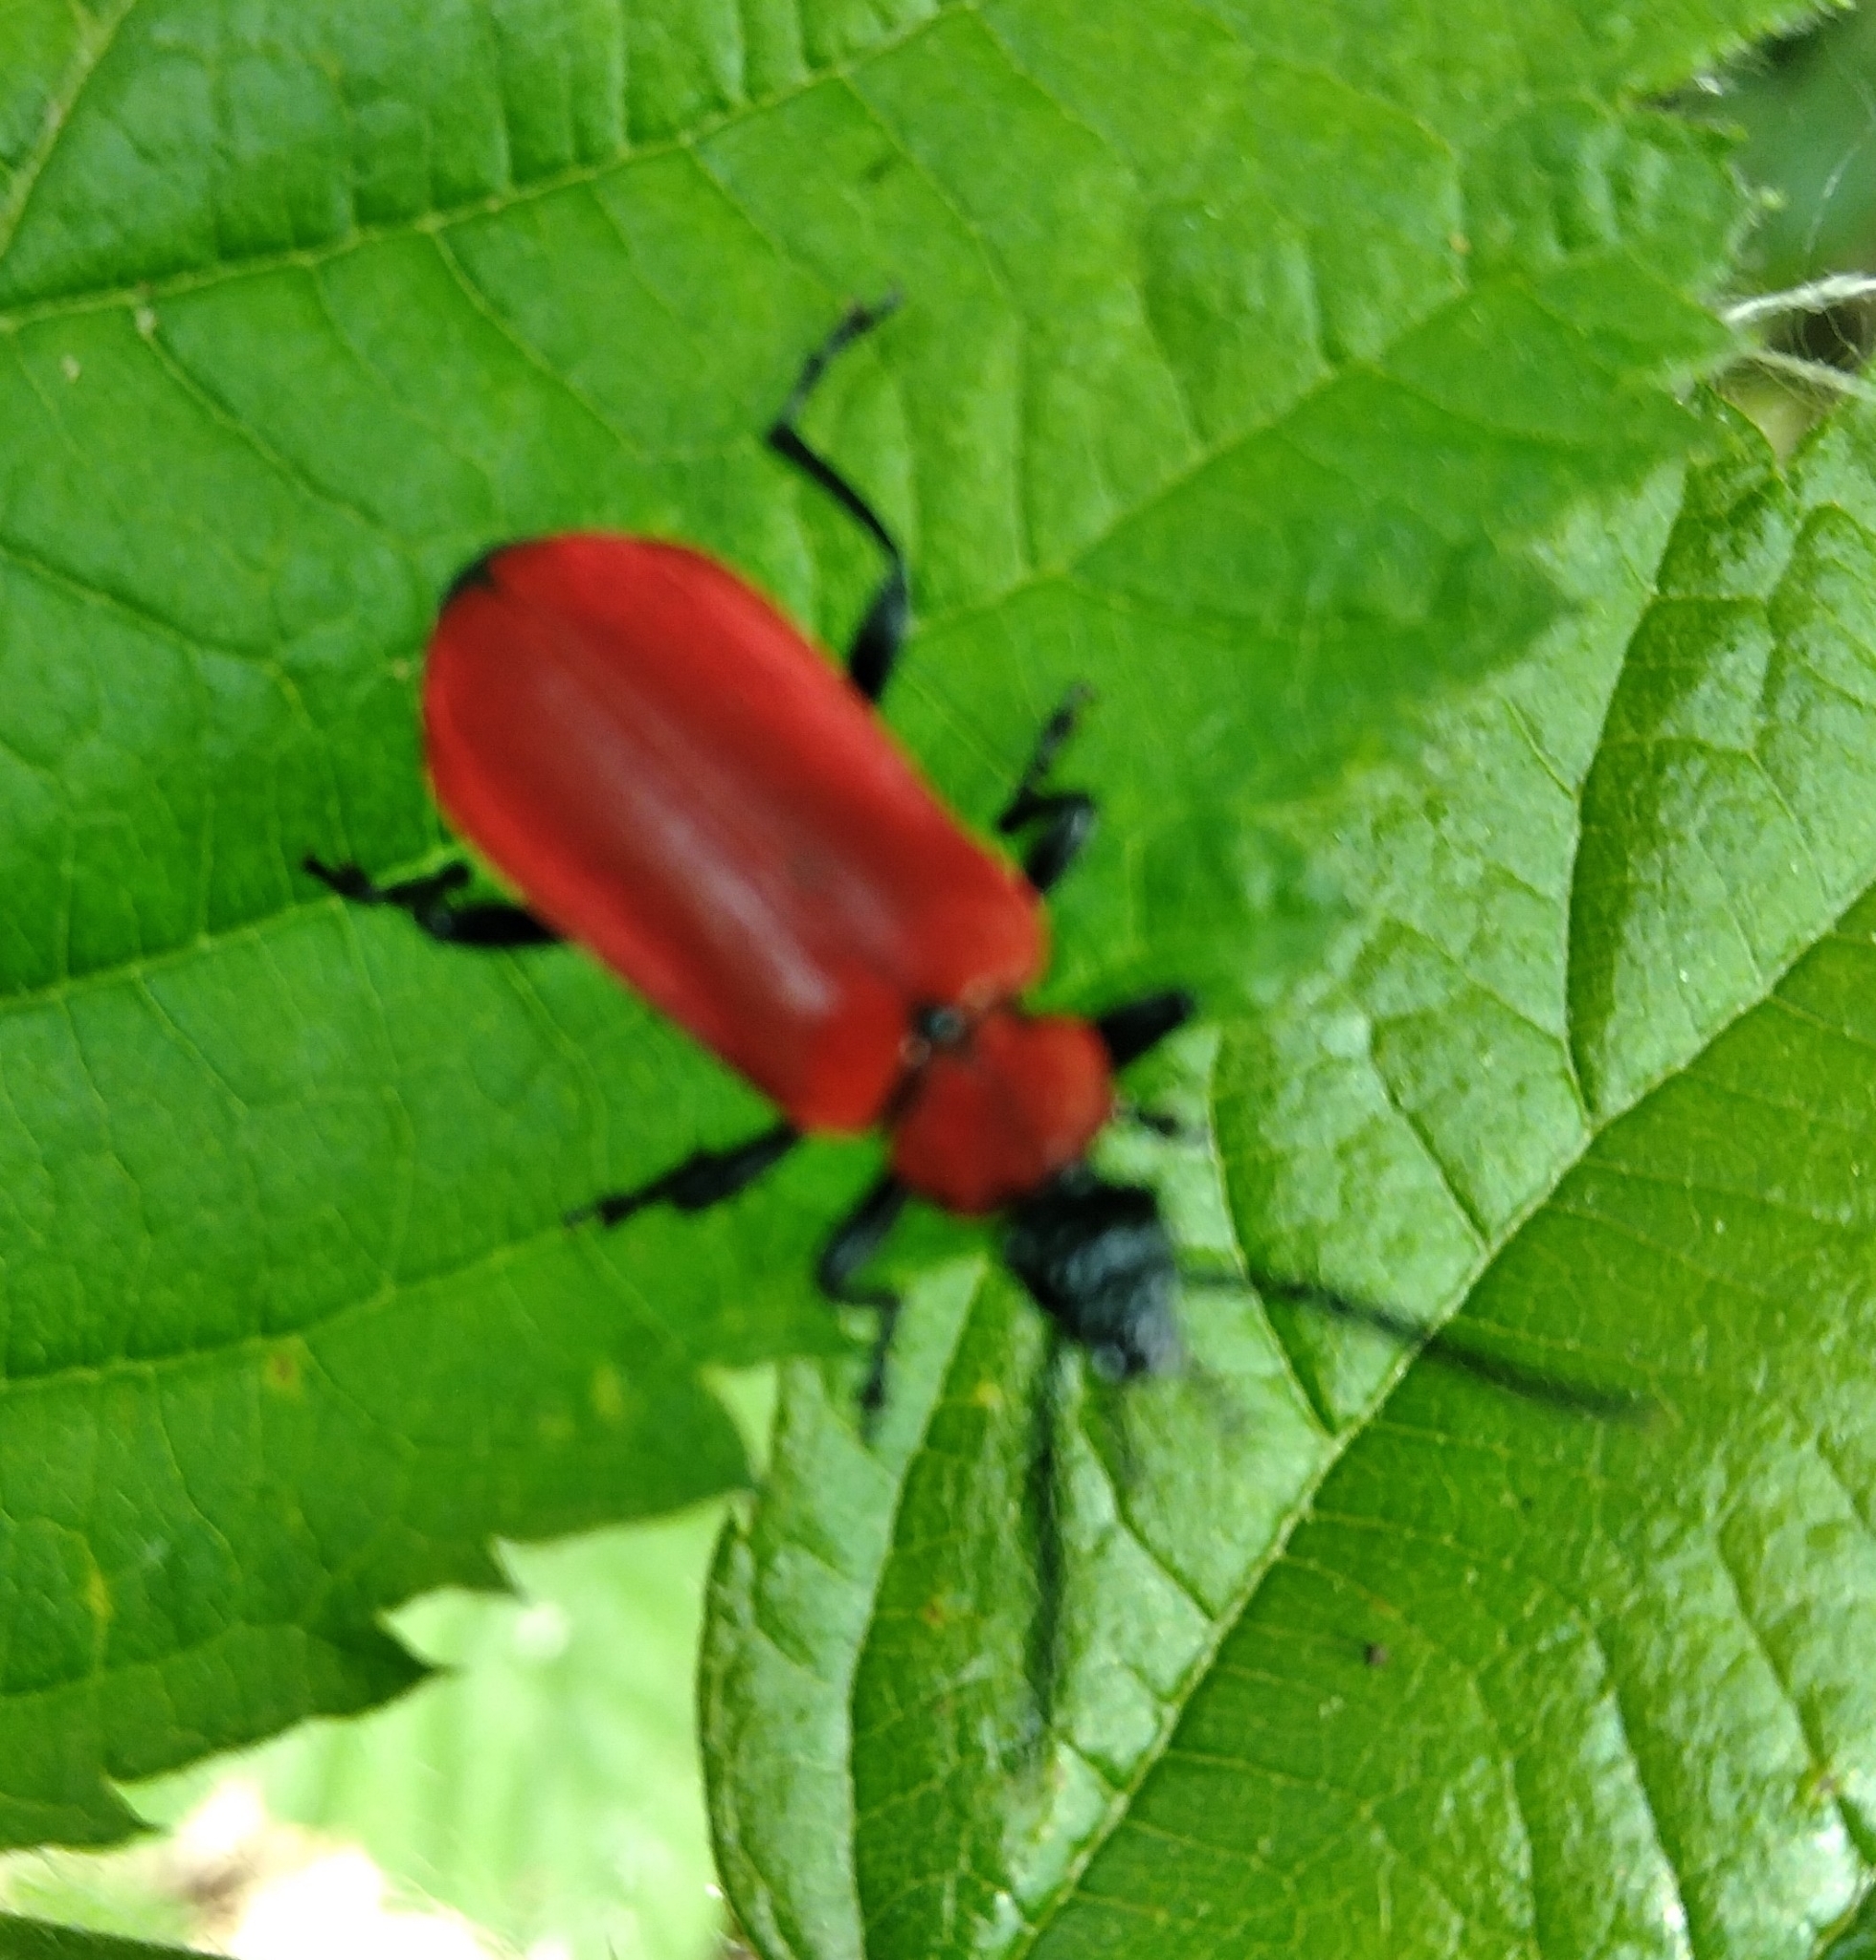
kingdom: Animalia
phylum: Arthropoda
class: Insecta
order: Coleoptera
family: Pyrochroidae
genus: Pyrochroa
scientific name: Pyrochroa coccinea
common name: Black-headed cardinal beetle
